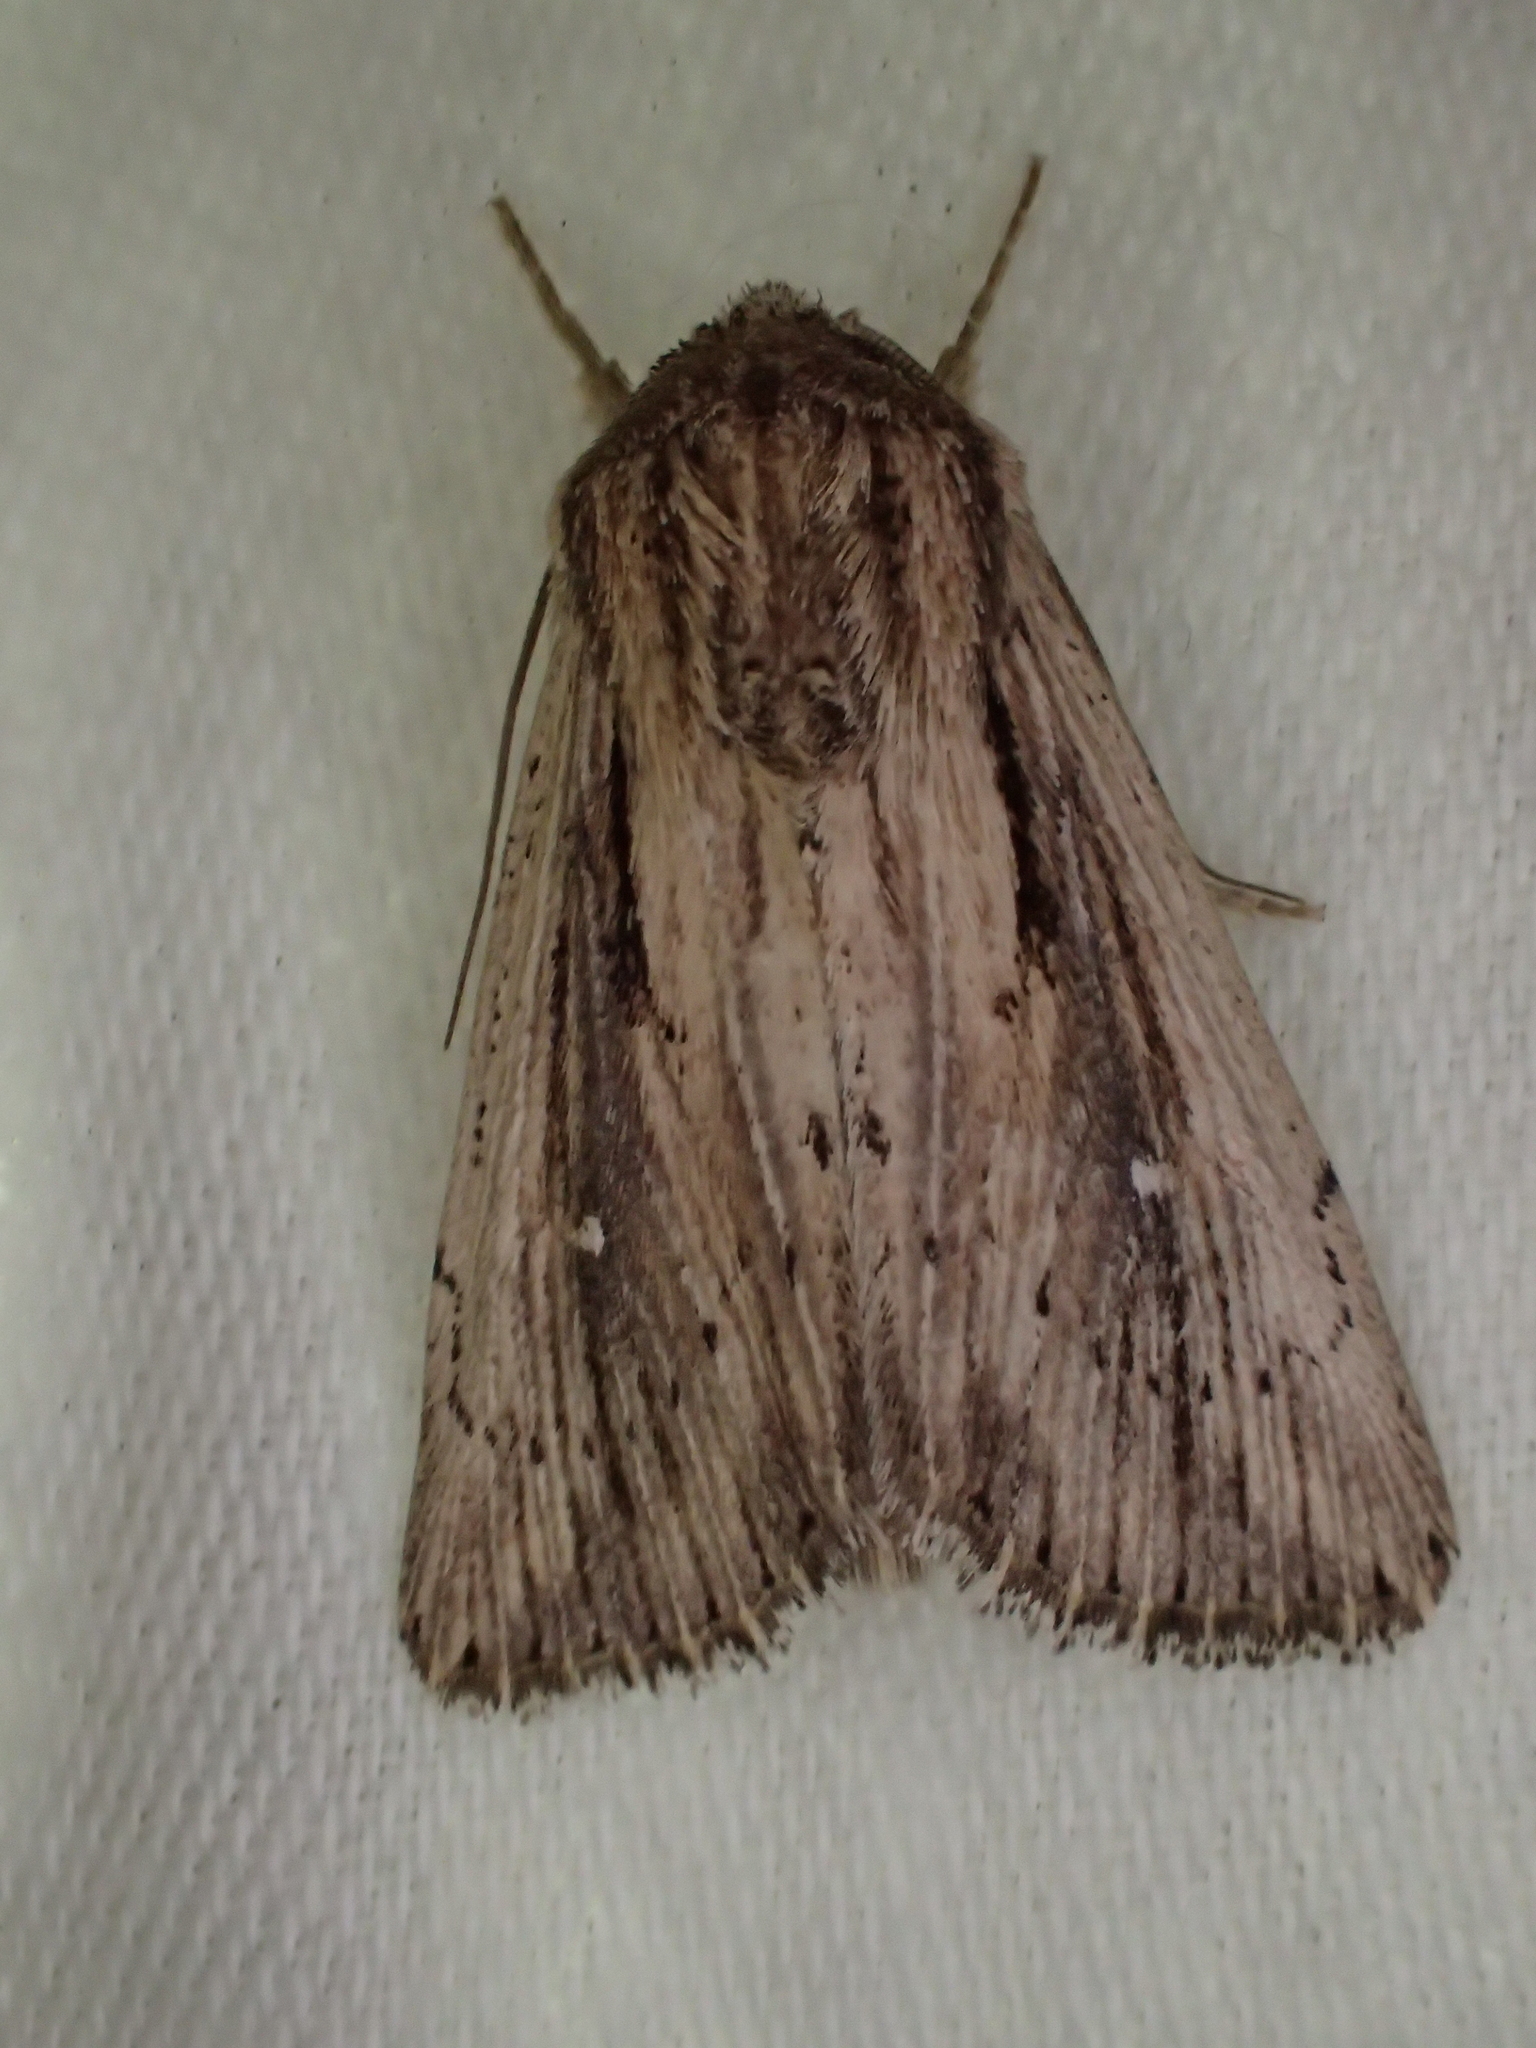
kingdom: Animalia
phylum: Arthropoda
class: Insecta
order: Lepidoptera
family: Noctuidae
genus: Leucania
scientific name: Leucania putrescens
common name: Devonshire wainscot
